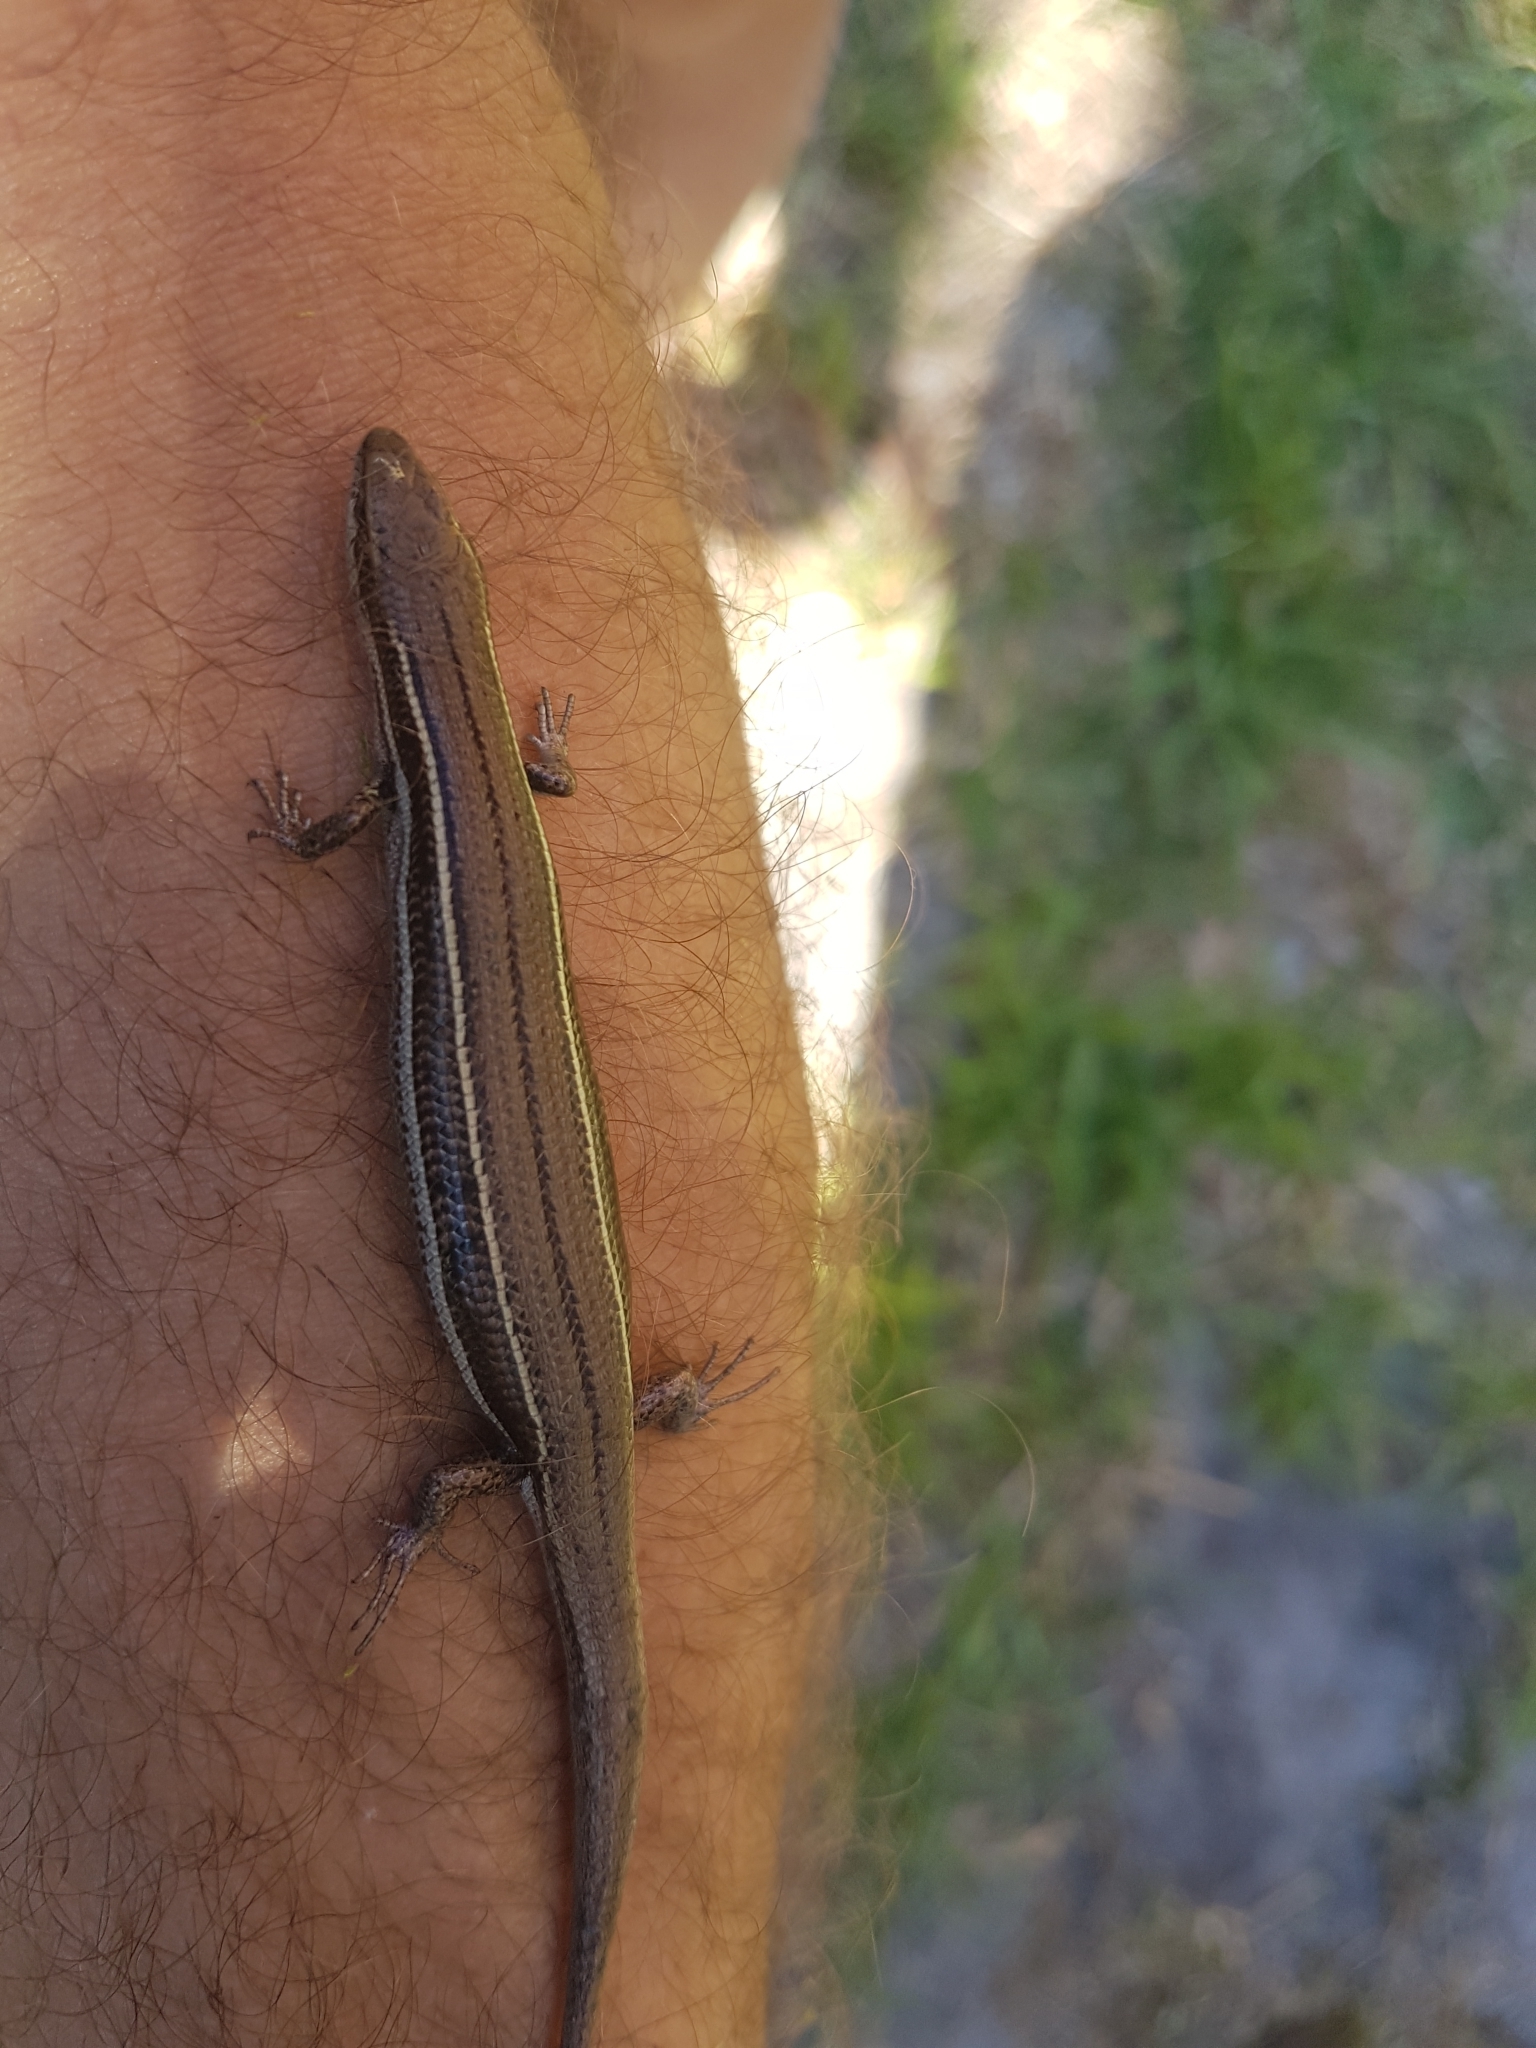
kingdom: Animalia
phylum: Chordata
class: Squamata
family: Scincidae
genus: Acritoscincus
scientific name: Acritoscincus duperreyi
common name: Bold-striped cool-skink
